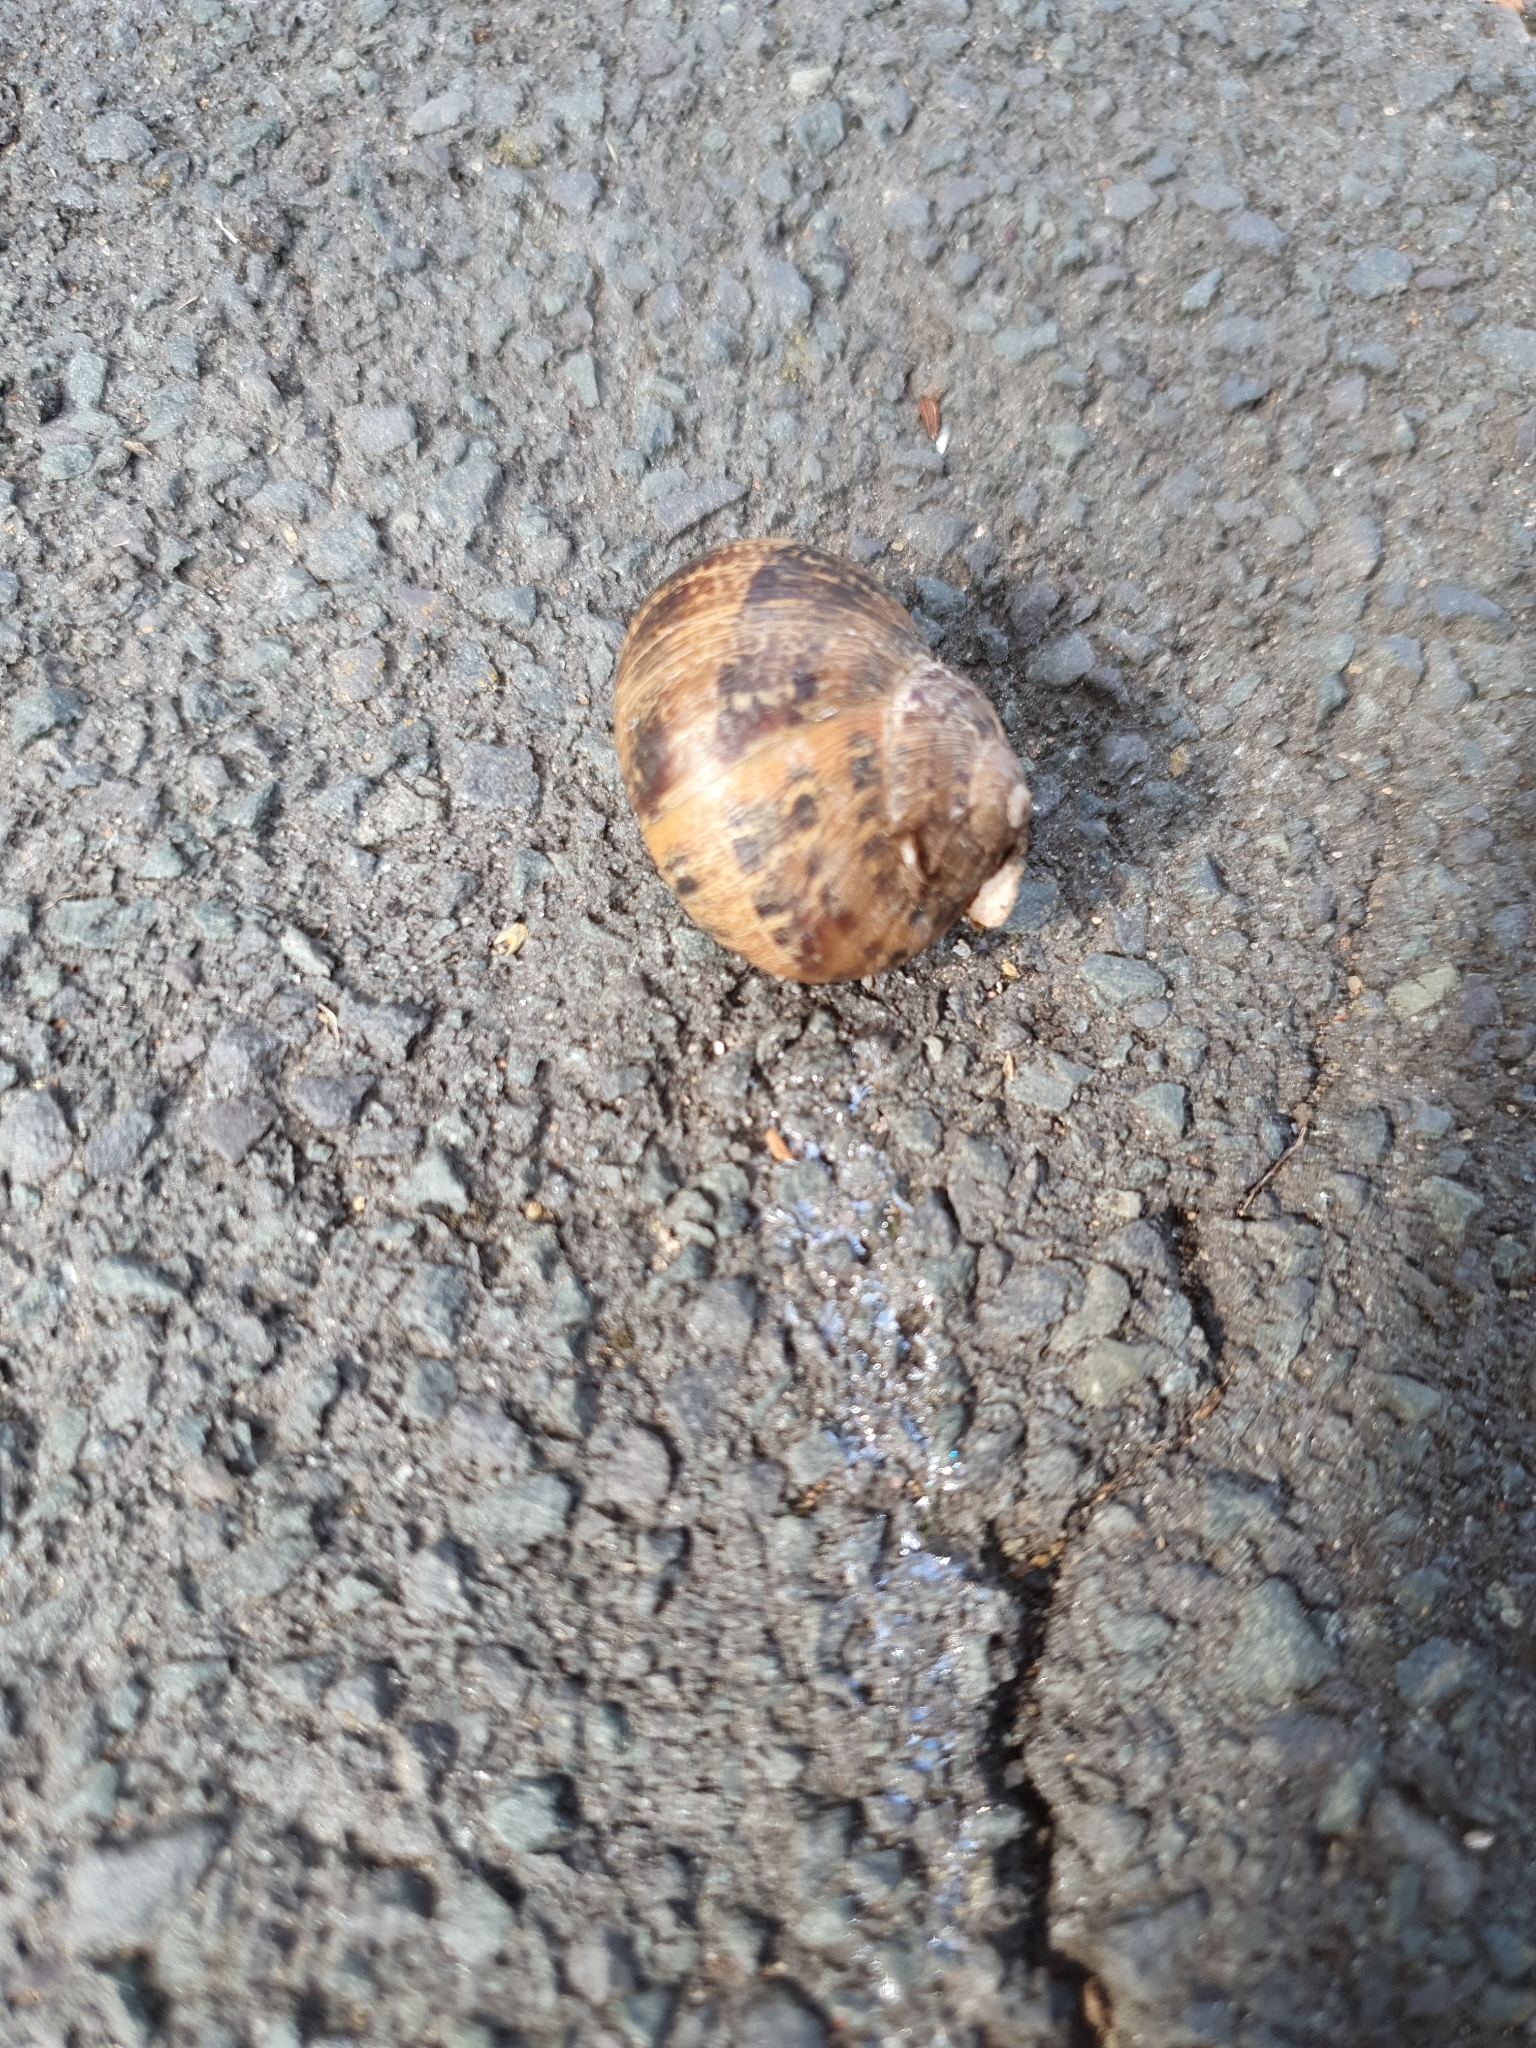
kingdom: Animalia
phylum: Mollusca
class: Gastropoda
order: Stylommatophora
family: Helicidae
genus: Cornu
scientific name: Cornu aspersum
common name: Brown garden snail
